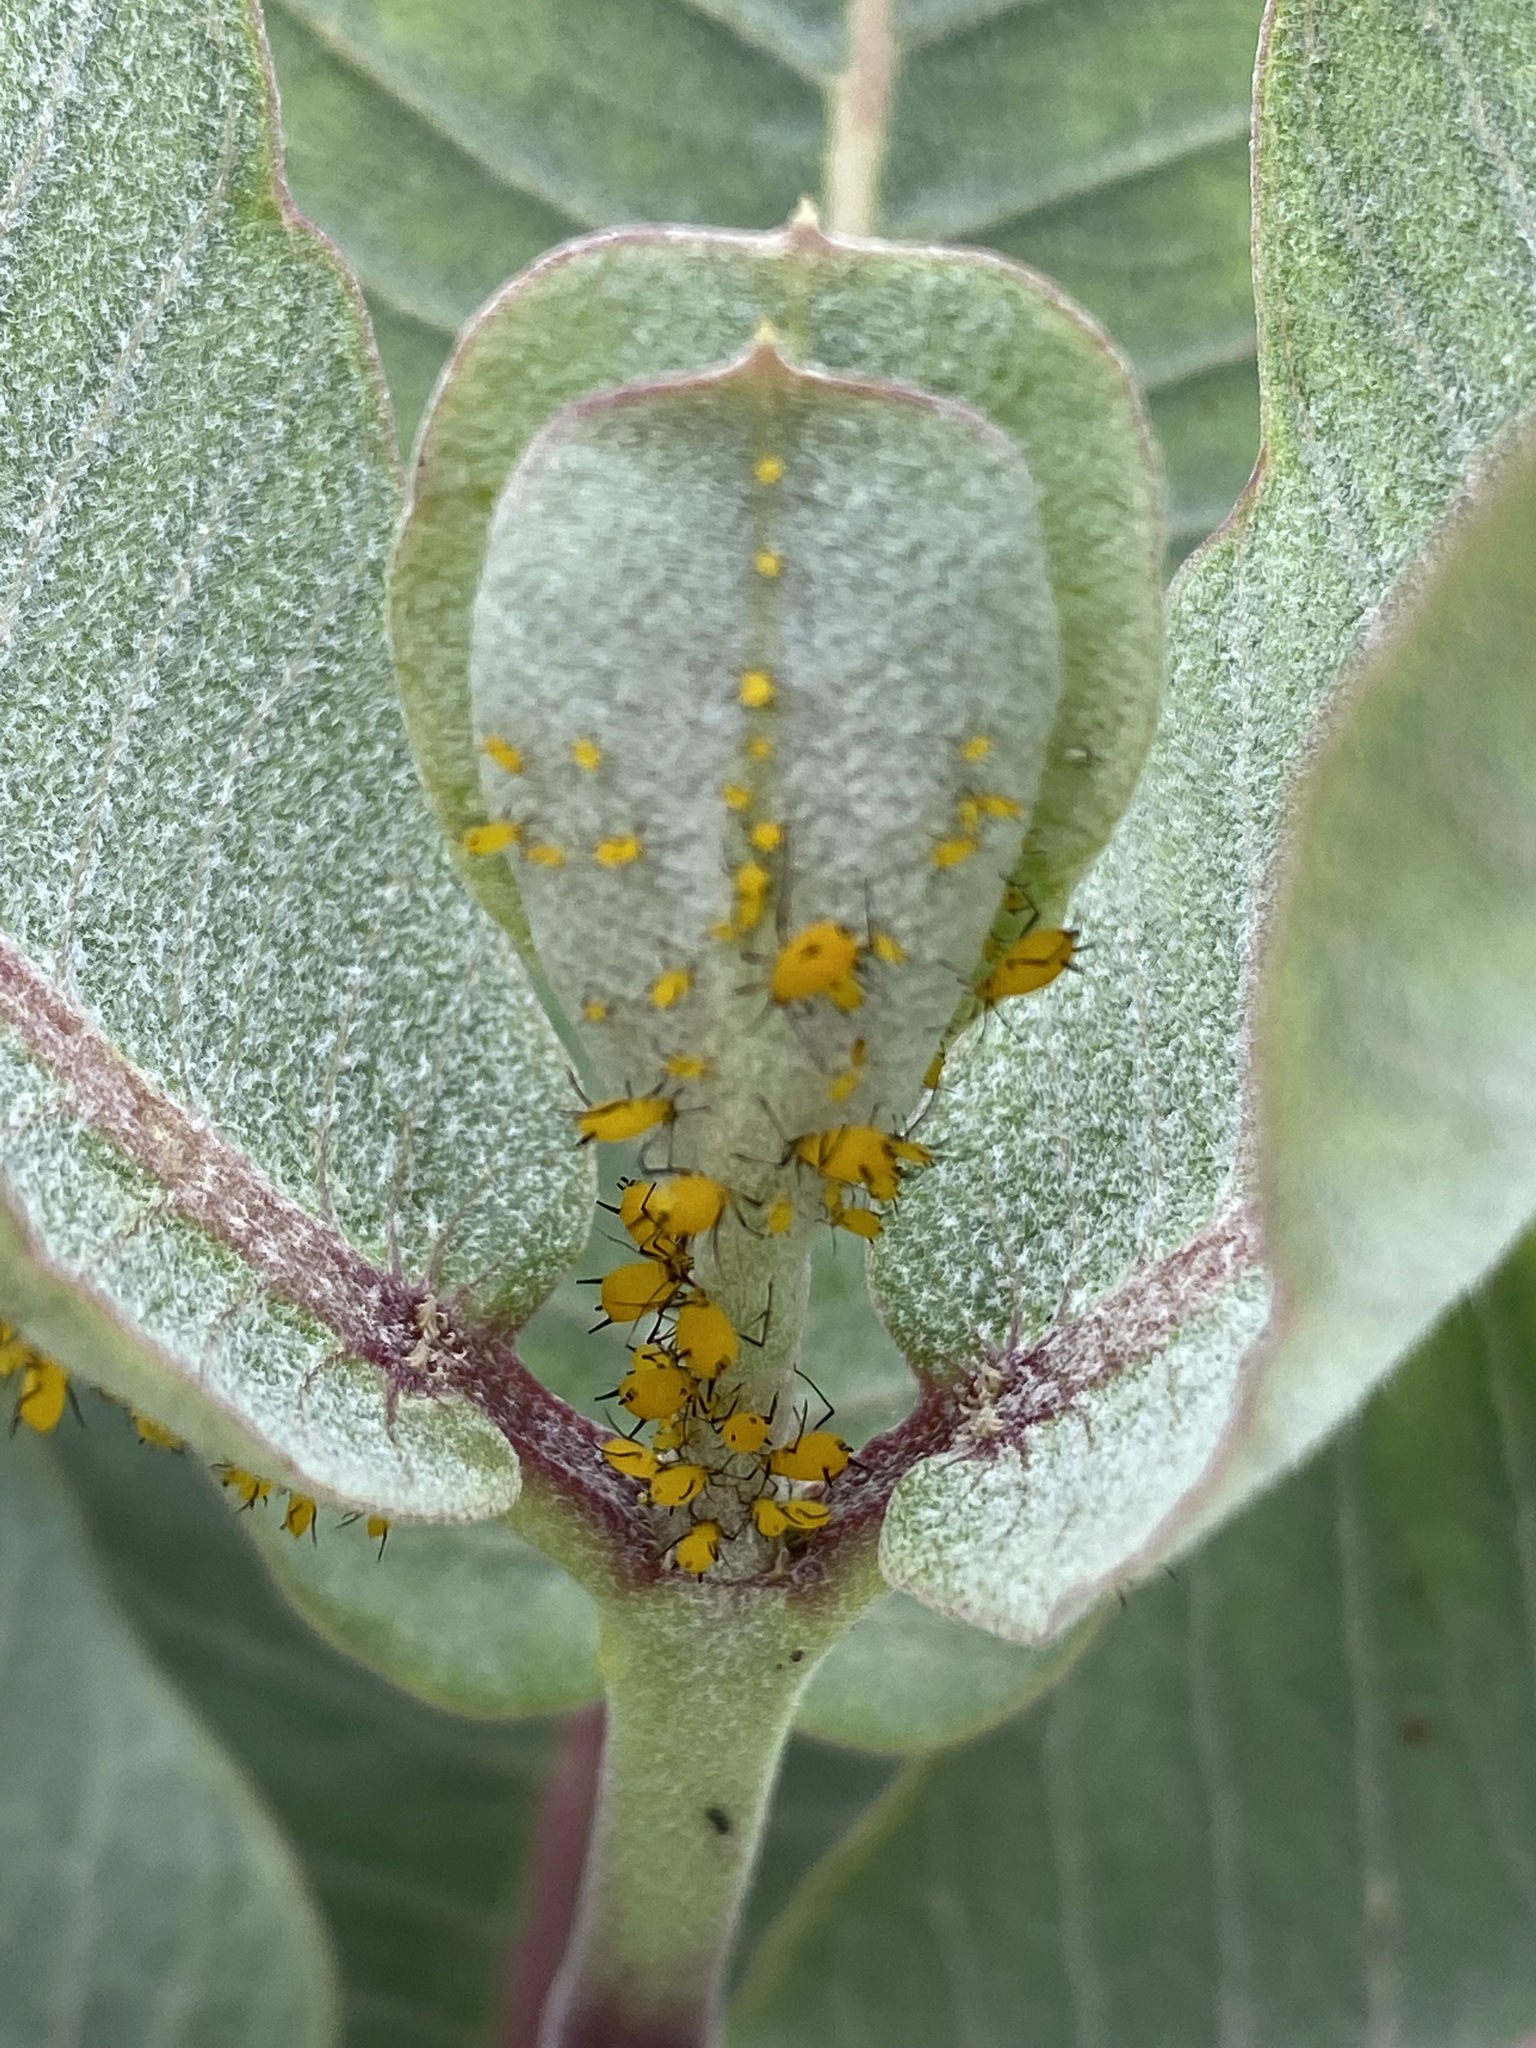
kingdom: Plantae
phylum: Tracheophyta
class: Magnoliopsida
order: Gentianales
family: Apocynaceae
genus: Asclepias
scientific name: Asclepias latifolia
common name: Broadleaf milkweed
